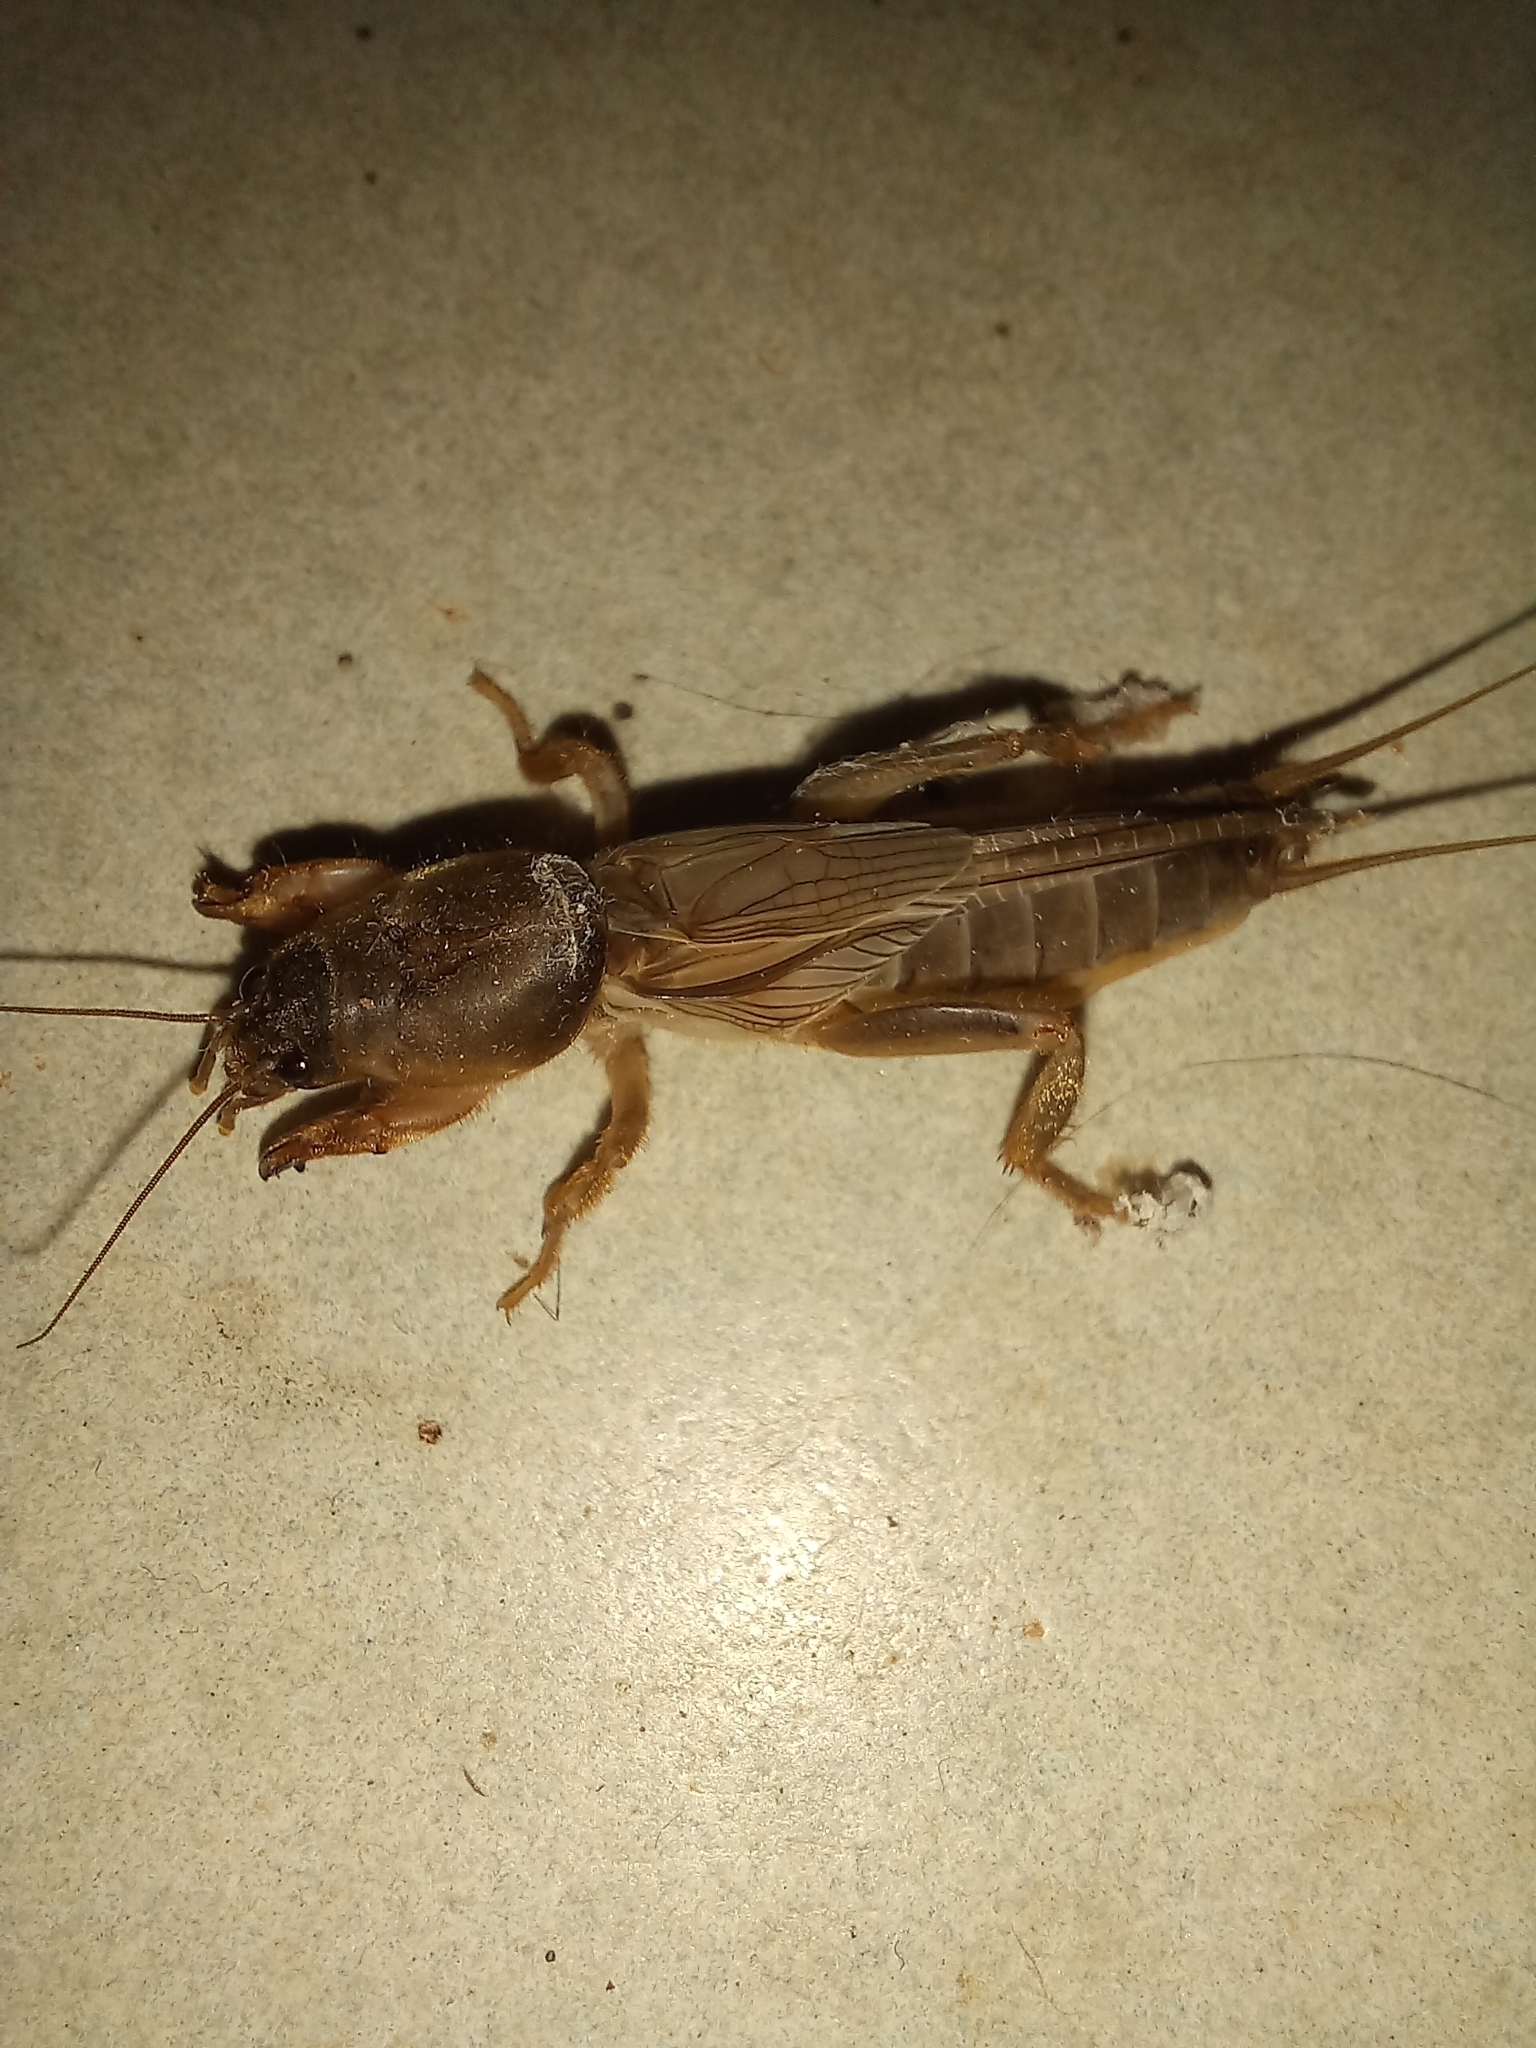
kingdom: Animalia
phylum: Arthropoda
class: Insecta
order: Orthoptera
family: Gryllotalpidae
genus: Gryllotalpa
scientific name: Gryllotalpa africana
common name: African mole cricket
